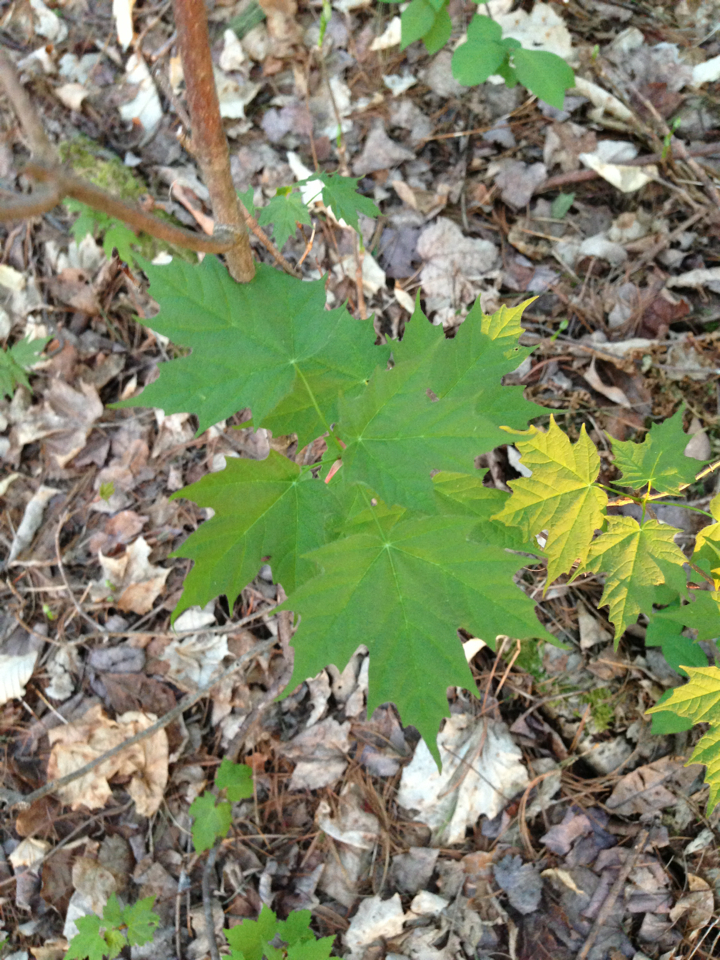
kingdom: Plantae
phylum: Tracheophyta
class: Magnoliopsida
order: Sapindales
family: Sapindaceae
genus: Acer
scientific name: Acer saccharum
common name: Sugar maple
